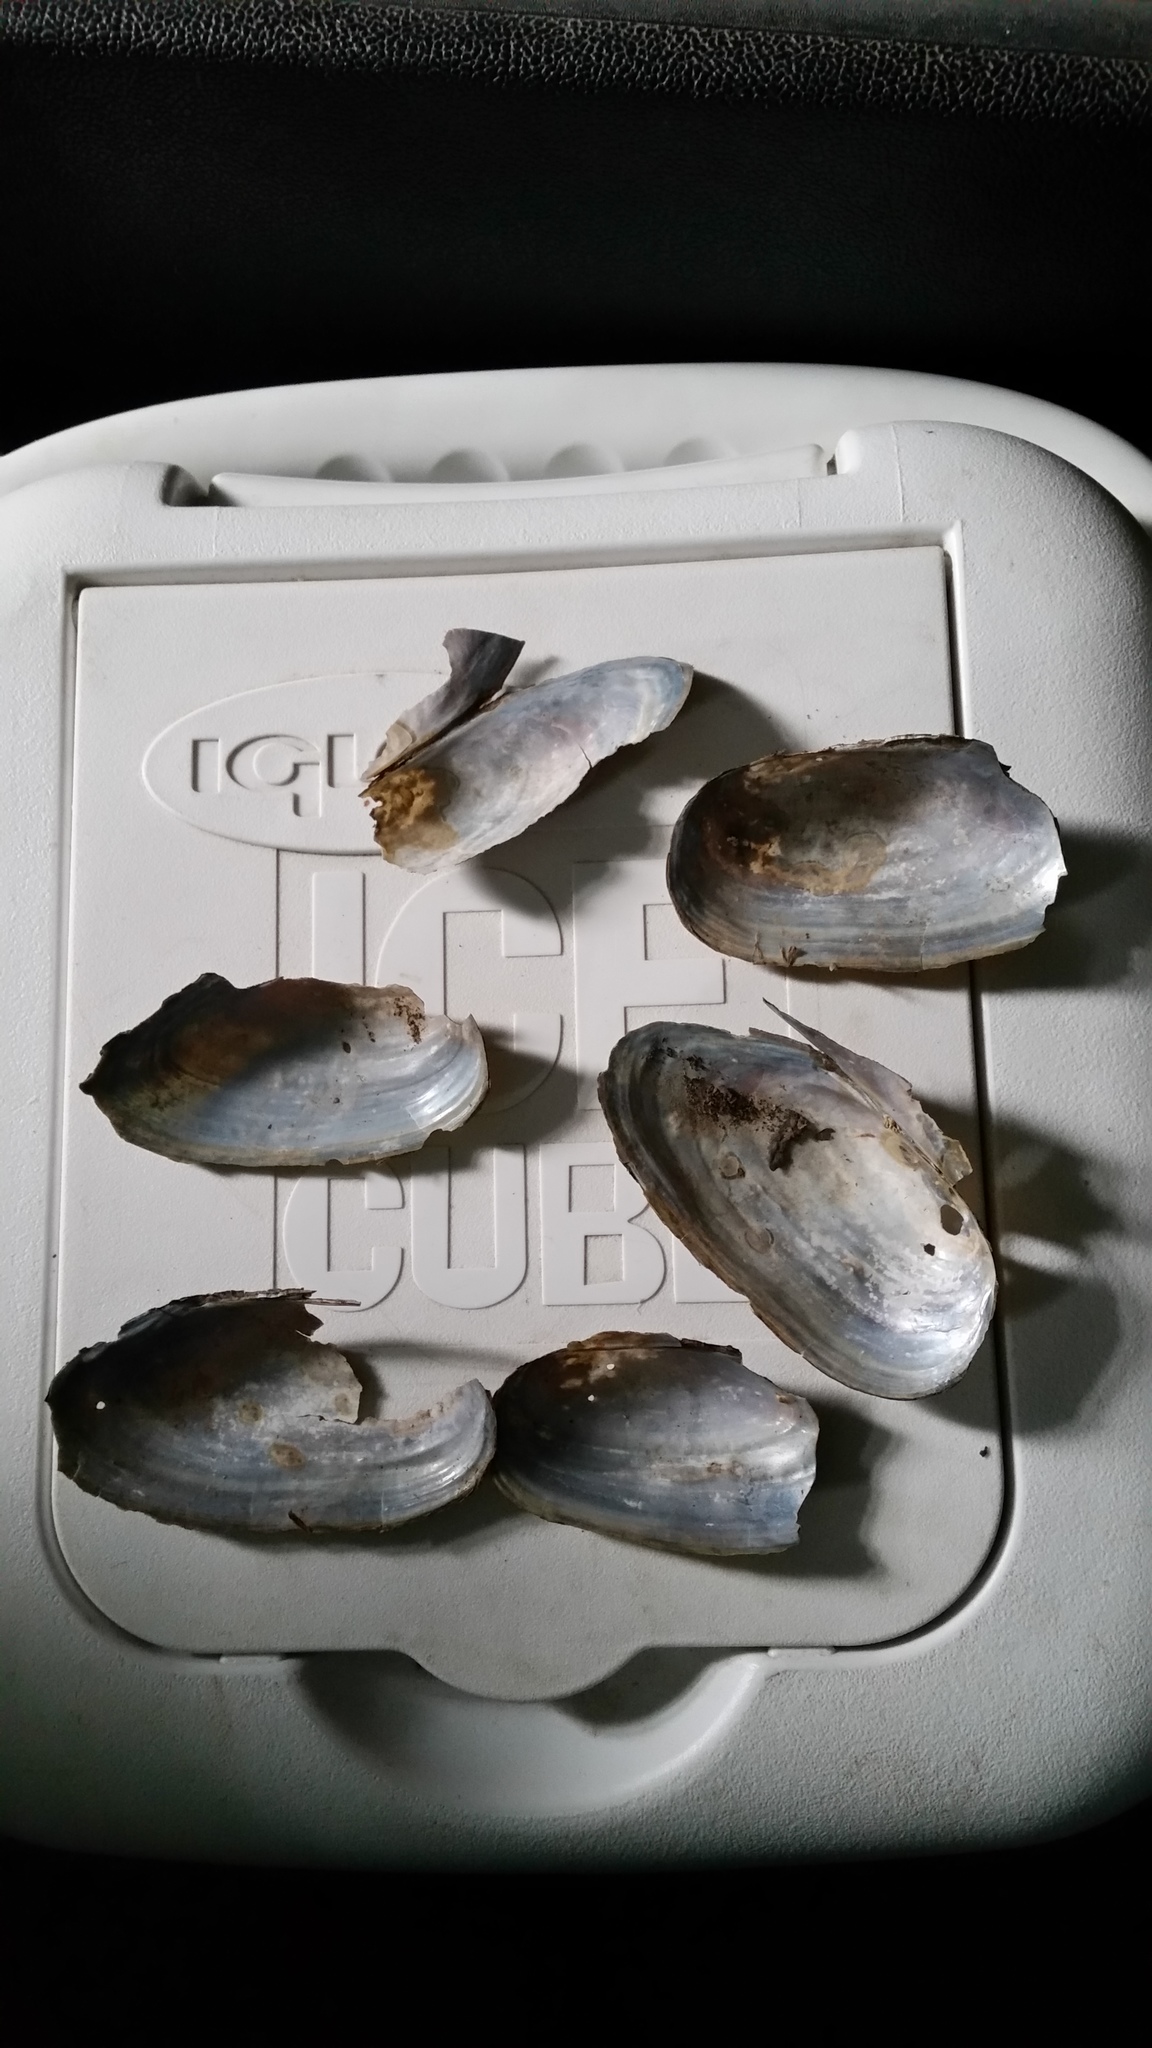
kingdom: Animalia
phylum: Mollusca
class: Bivalvia
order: Unionida
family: Unionidae
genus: Utterbackia
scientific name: Utterbackia imbecillis
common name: Paper pondshell
